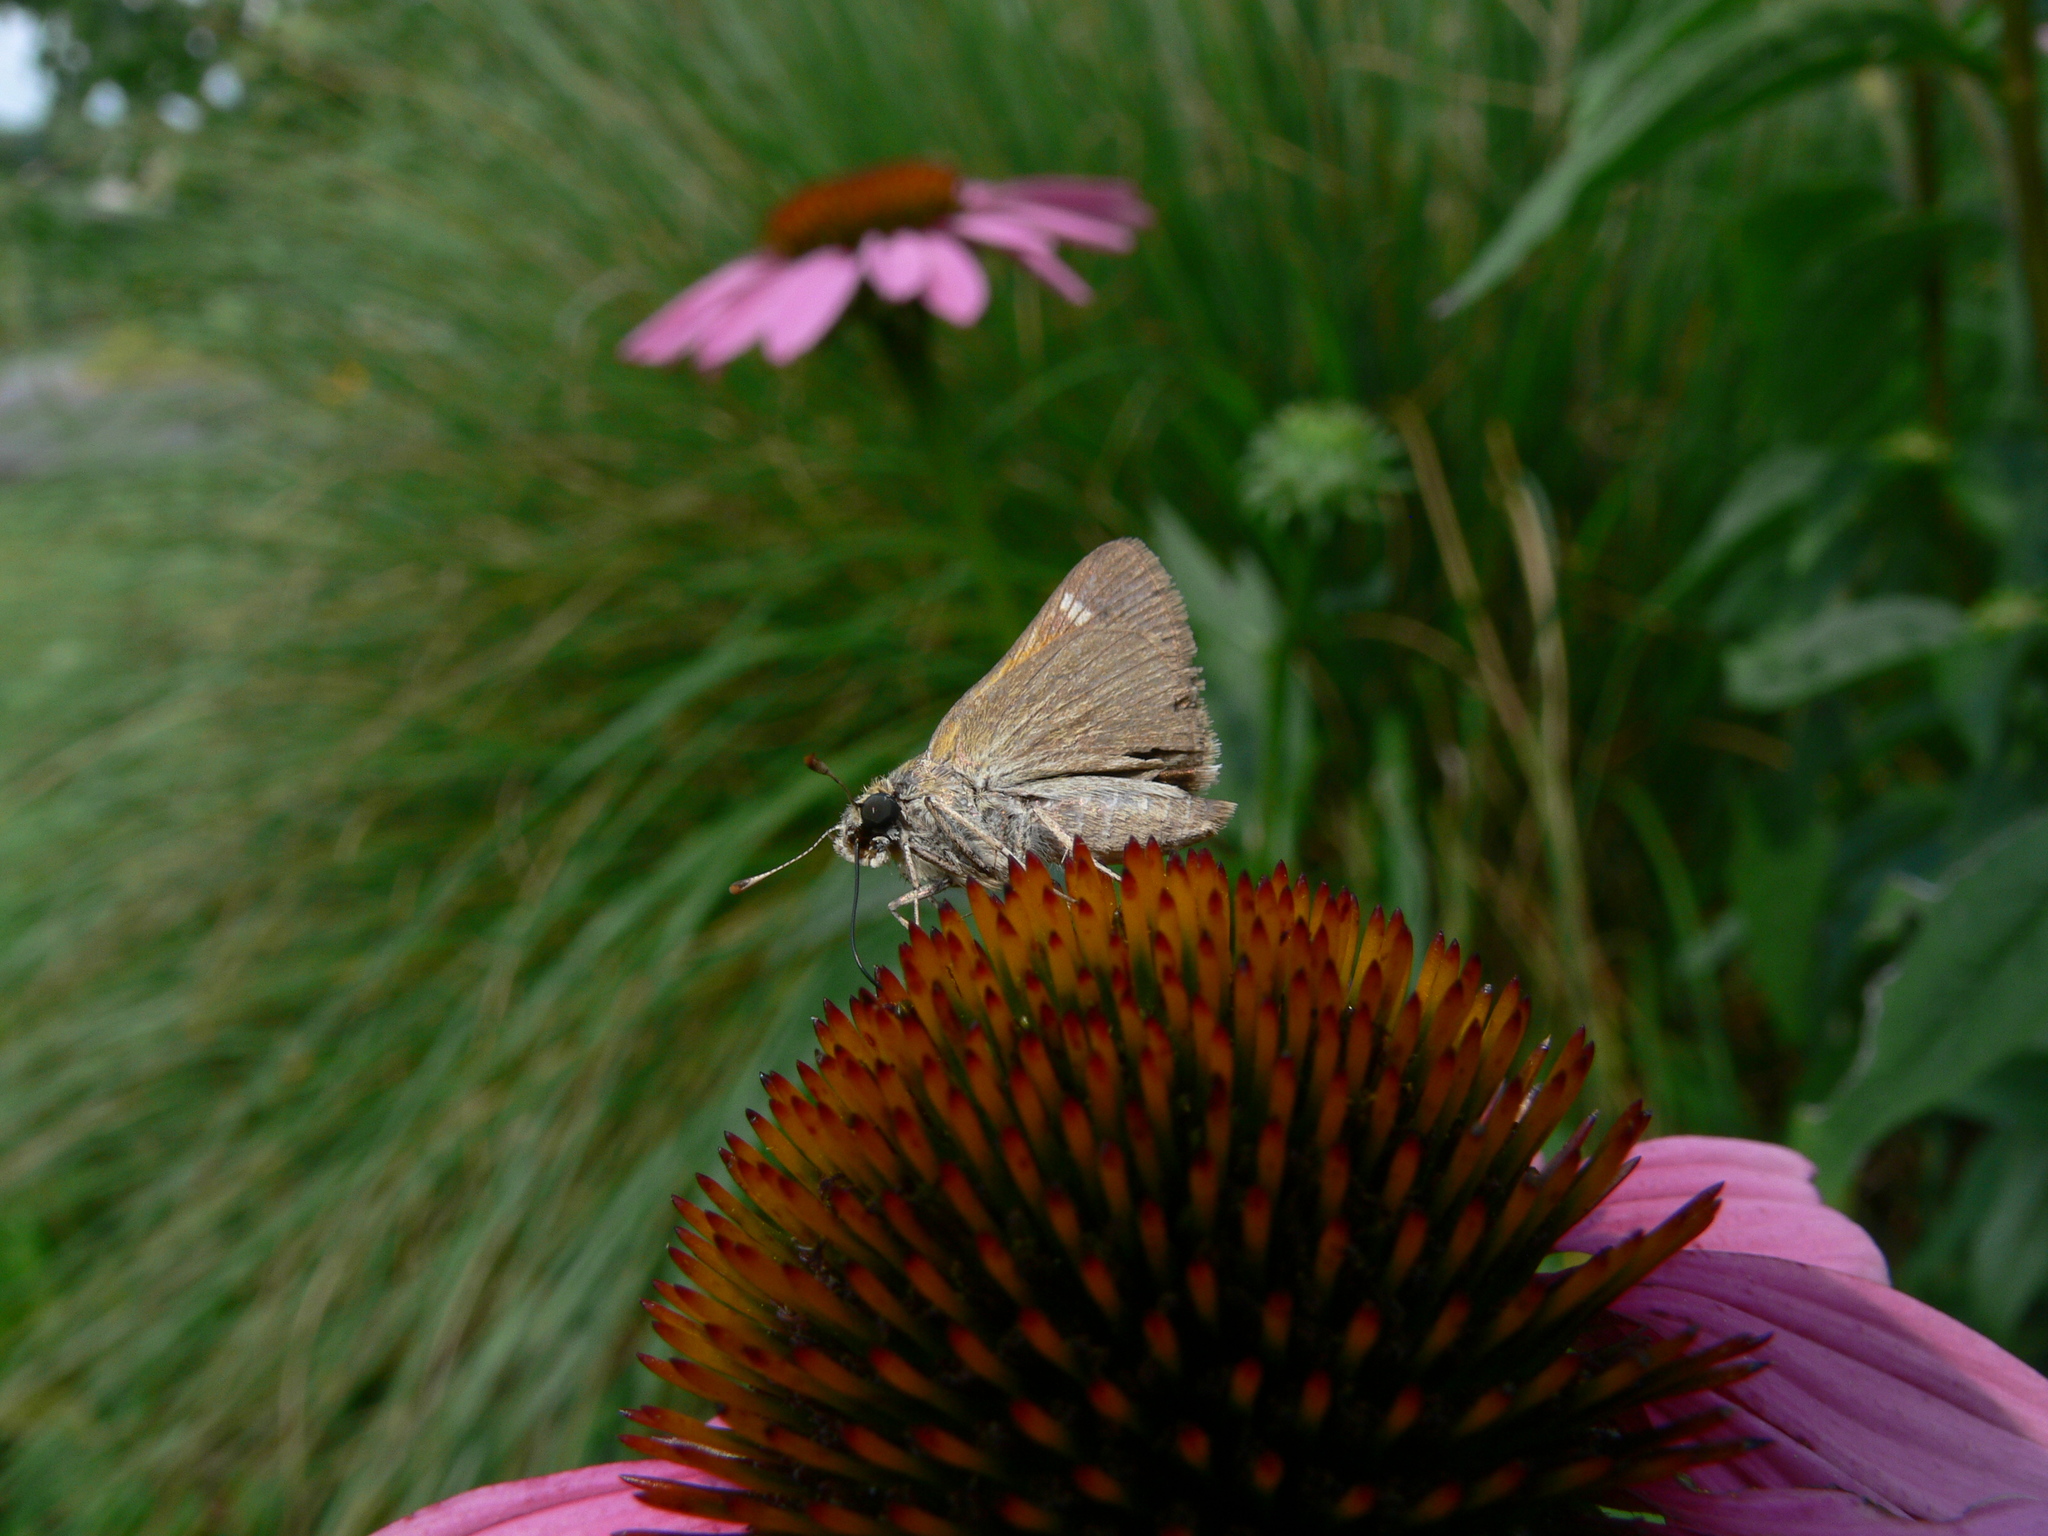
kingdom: Animalia
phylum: Arthropoda
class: Insecta
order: Lepidoptera
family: Hesperiidae
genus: Polites
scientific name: Polites themistocles
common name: Tawny-edged skipper
